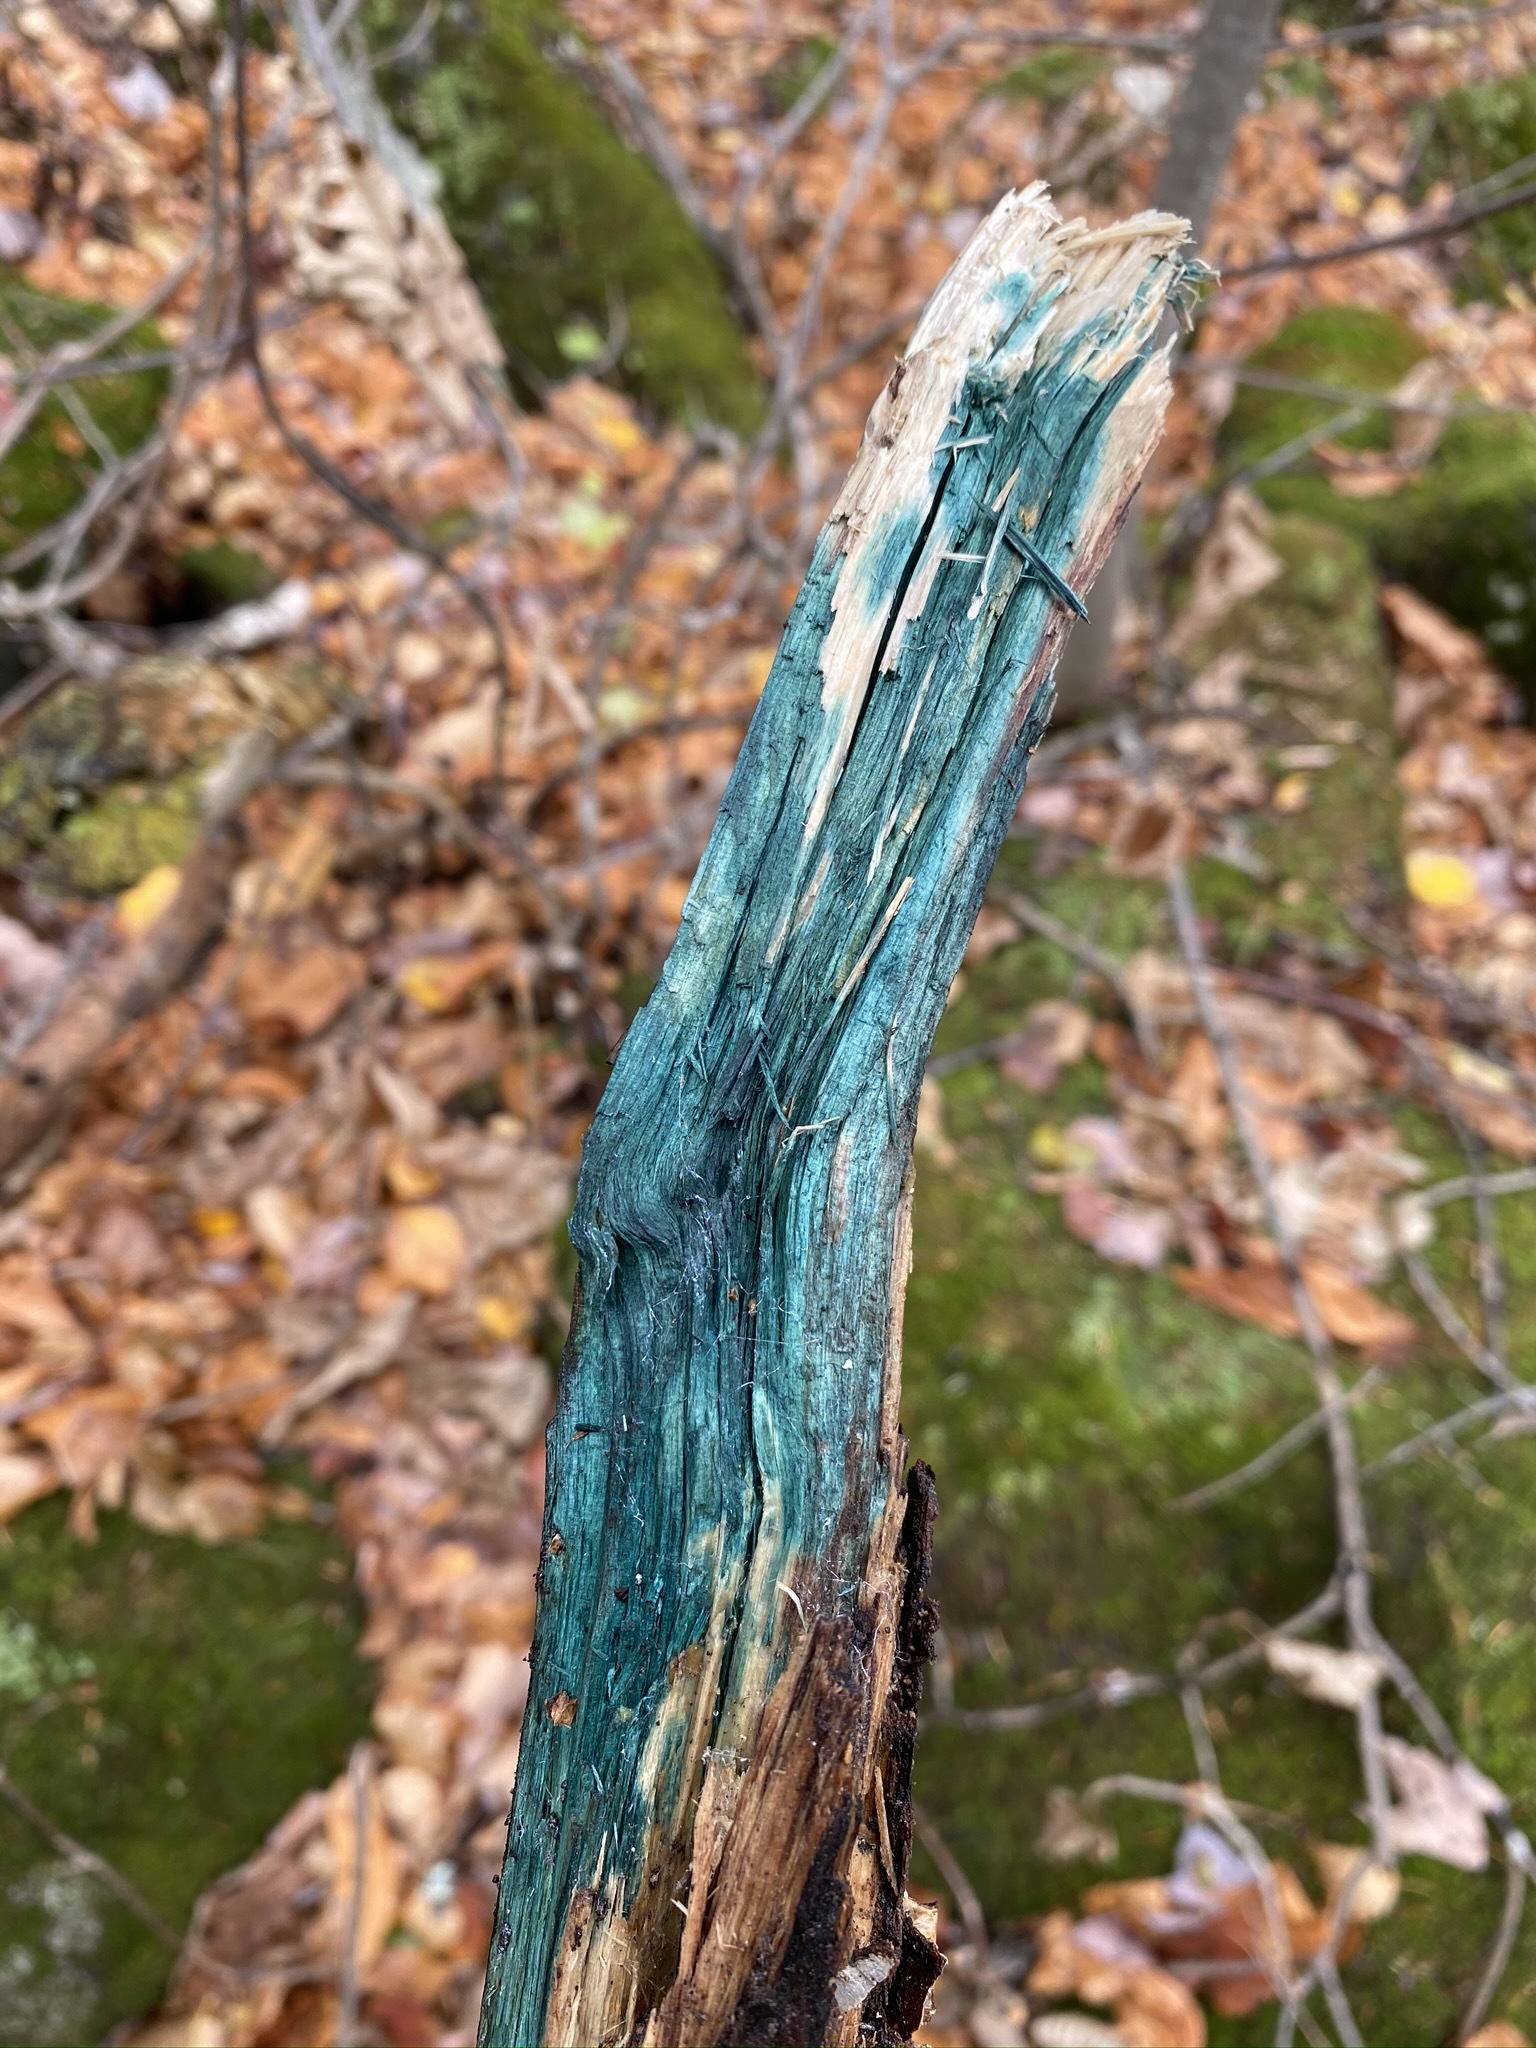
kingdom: Fungi
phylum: Ascomycota
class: Leotiomycetes
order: Helotiales
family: Chlorociboriaceae
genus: Chlorociboria
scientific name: Chlorociboria aeruginascens
